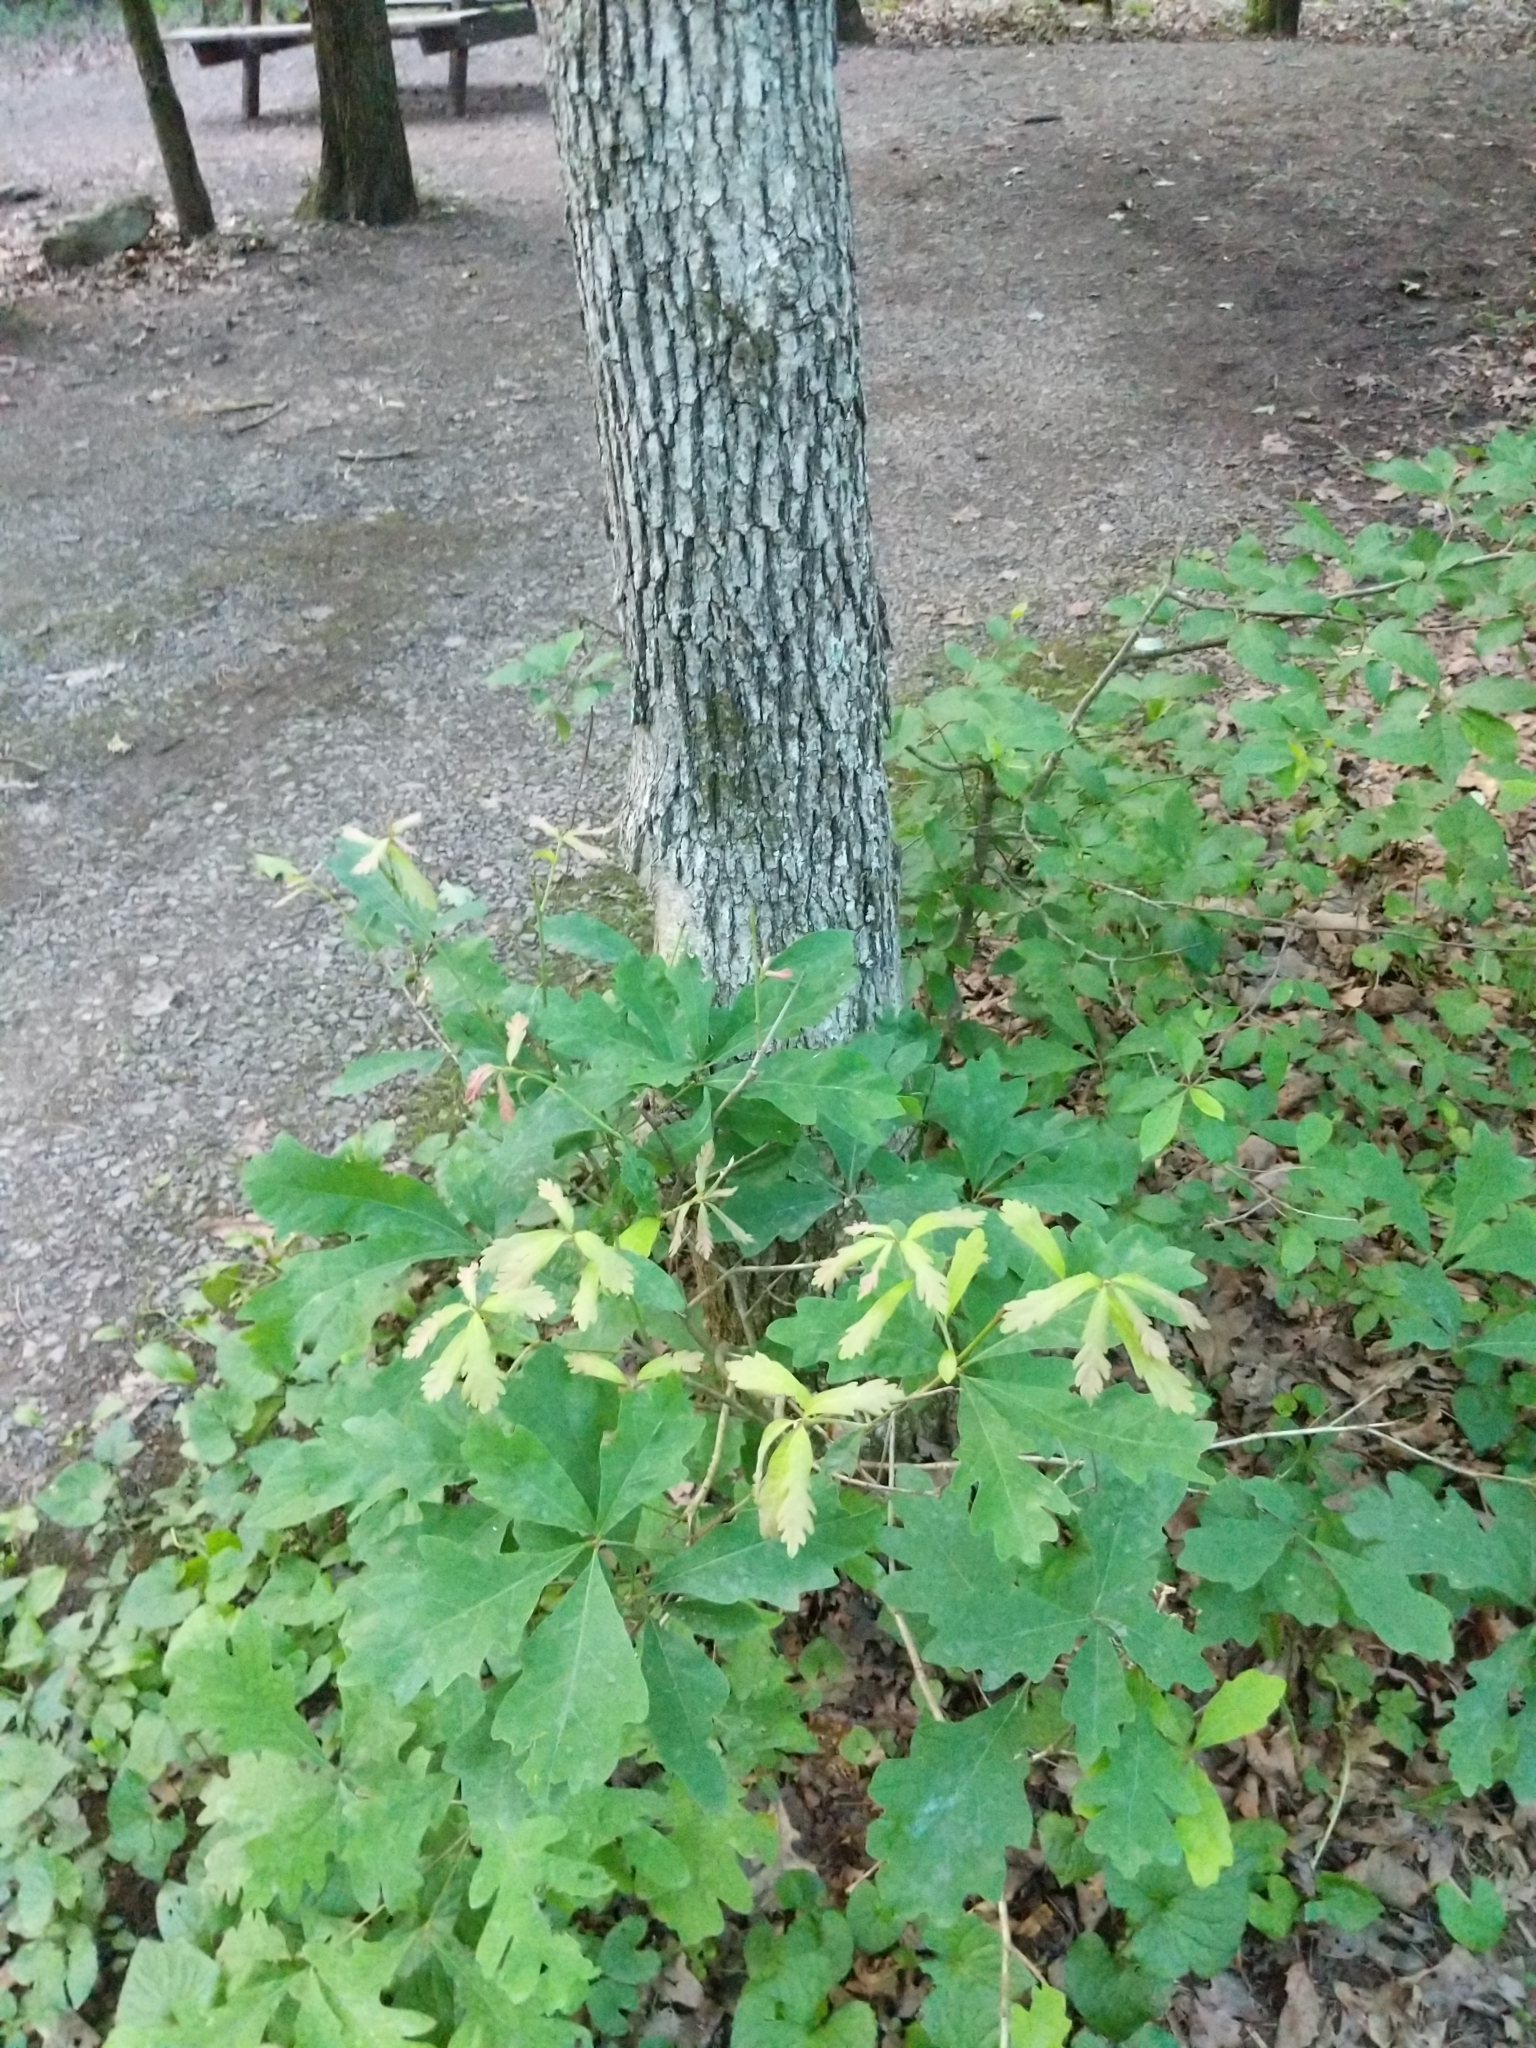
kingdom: Plantae
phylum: Tracheophyta
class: Magnoliopsida
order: Fagales
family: Fagaceae
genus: Quercus
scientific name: Quercus alba
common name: White oak
